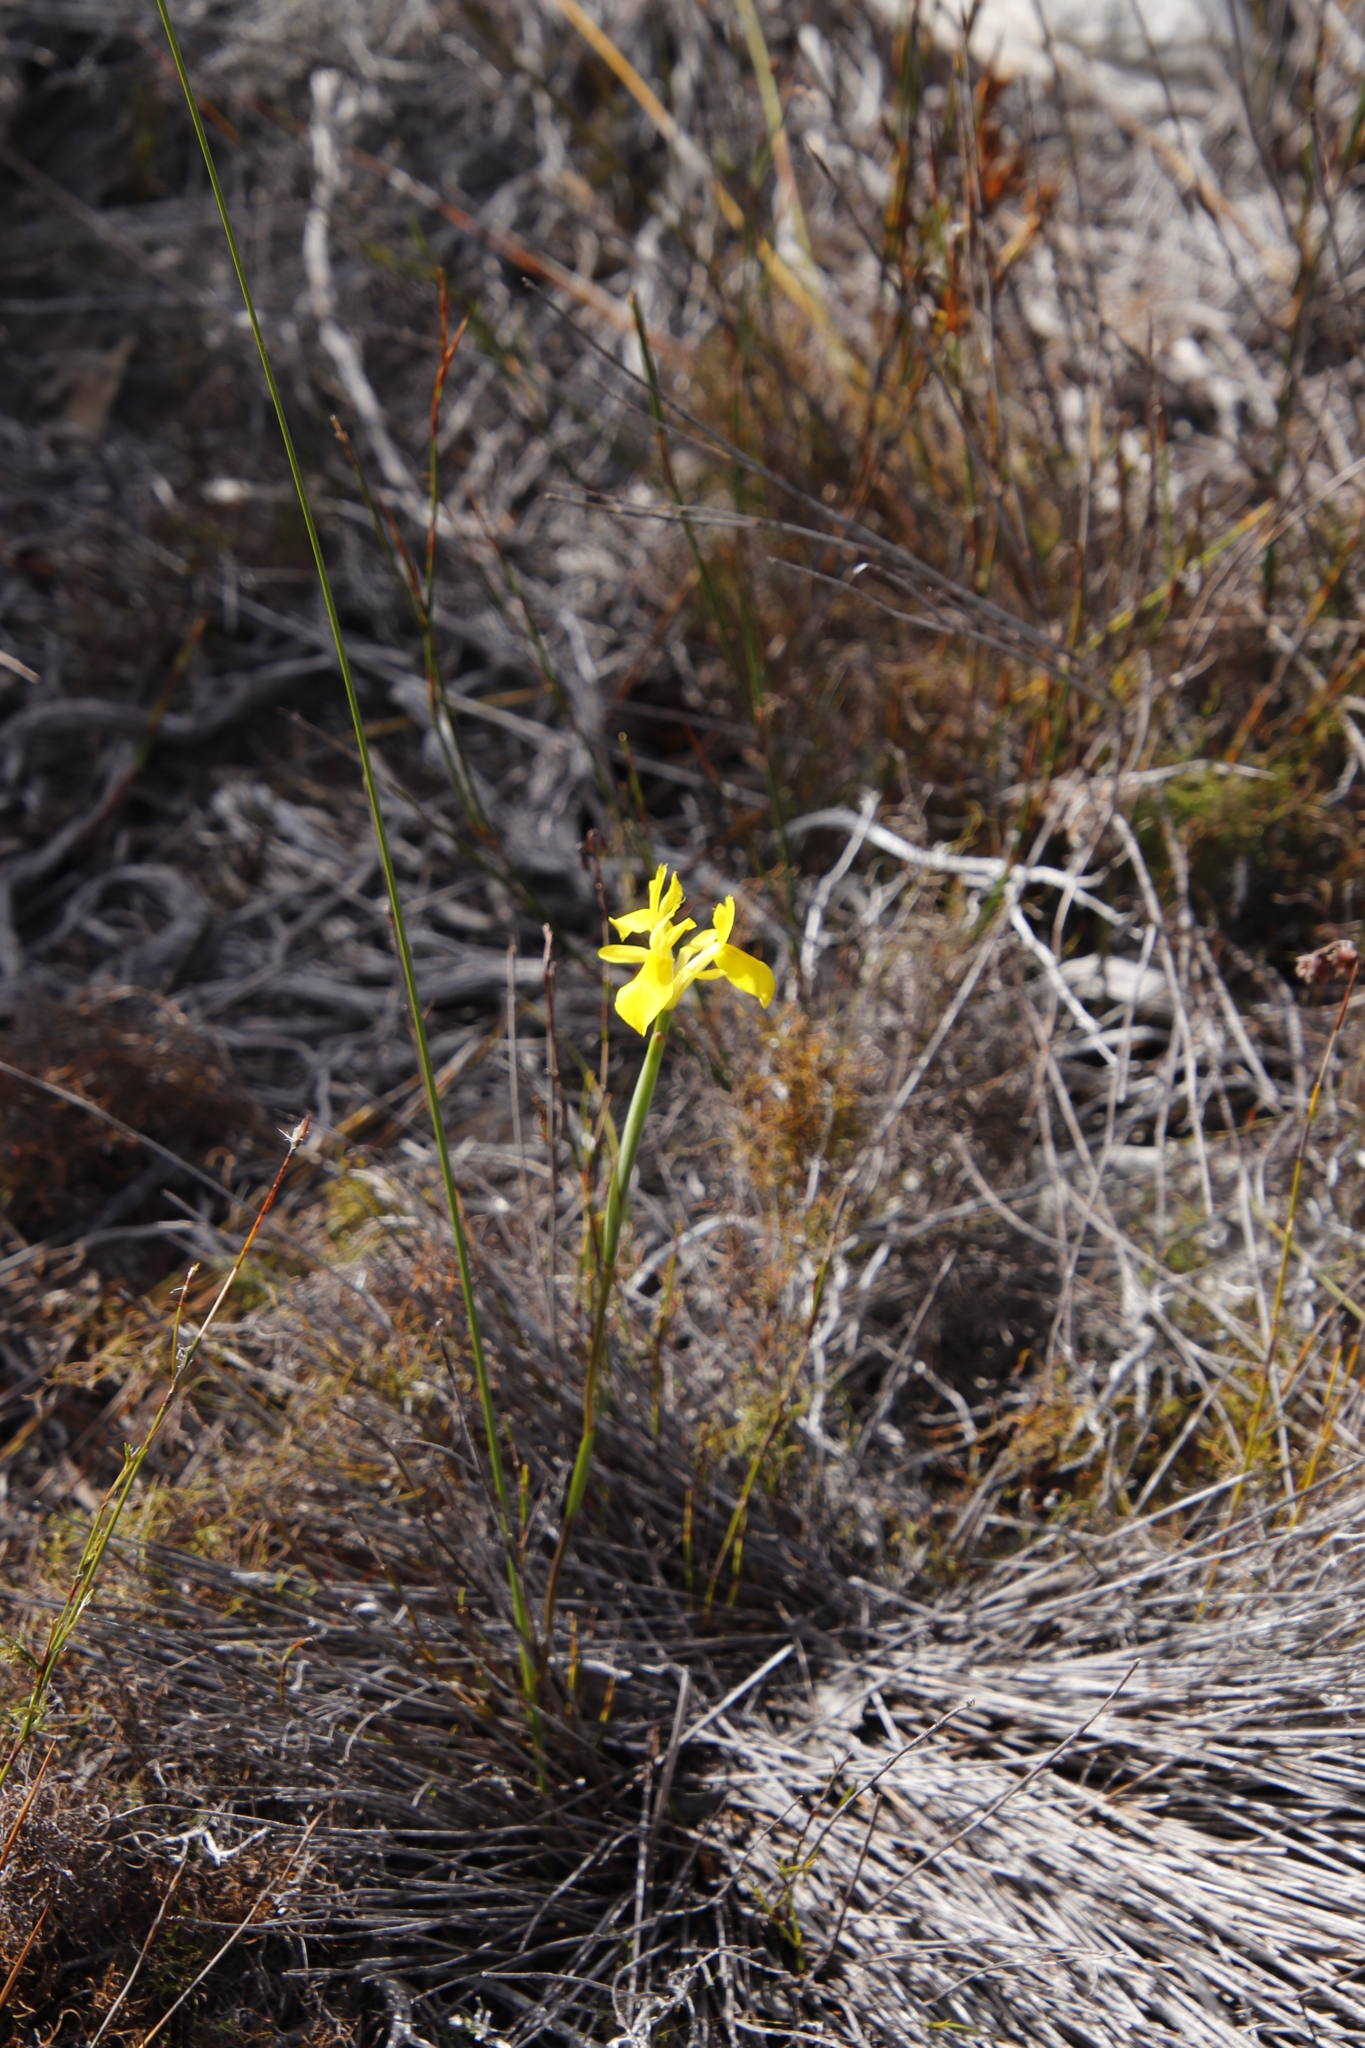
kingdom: Plantae
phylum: Tracheophyta
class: Liliopsida
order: Asparagales
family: Iridaceae
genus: Moraea
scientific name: Moraea neglecta
